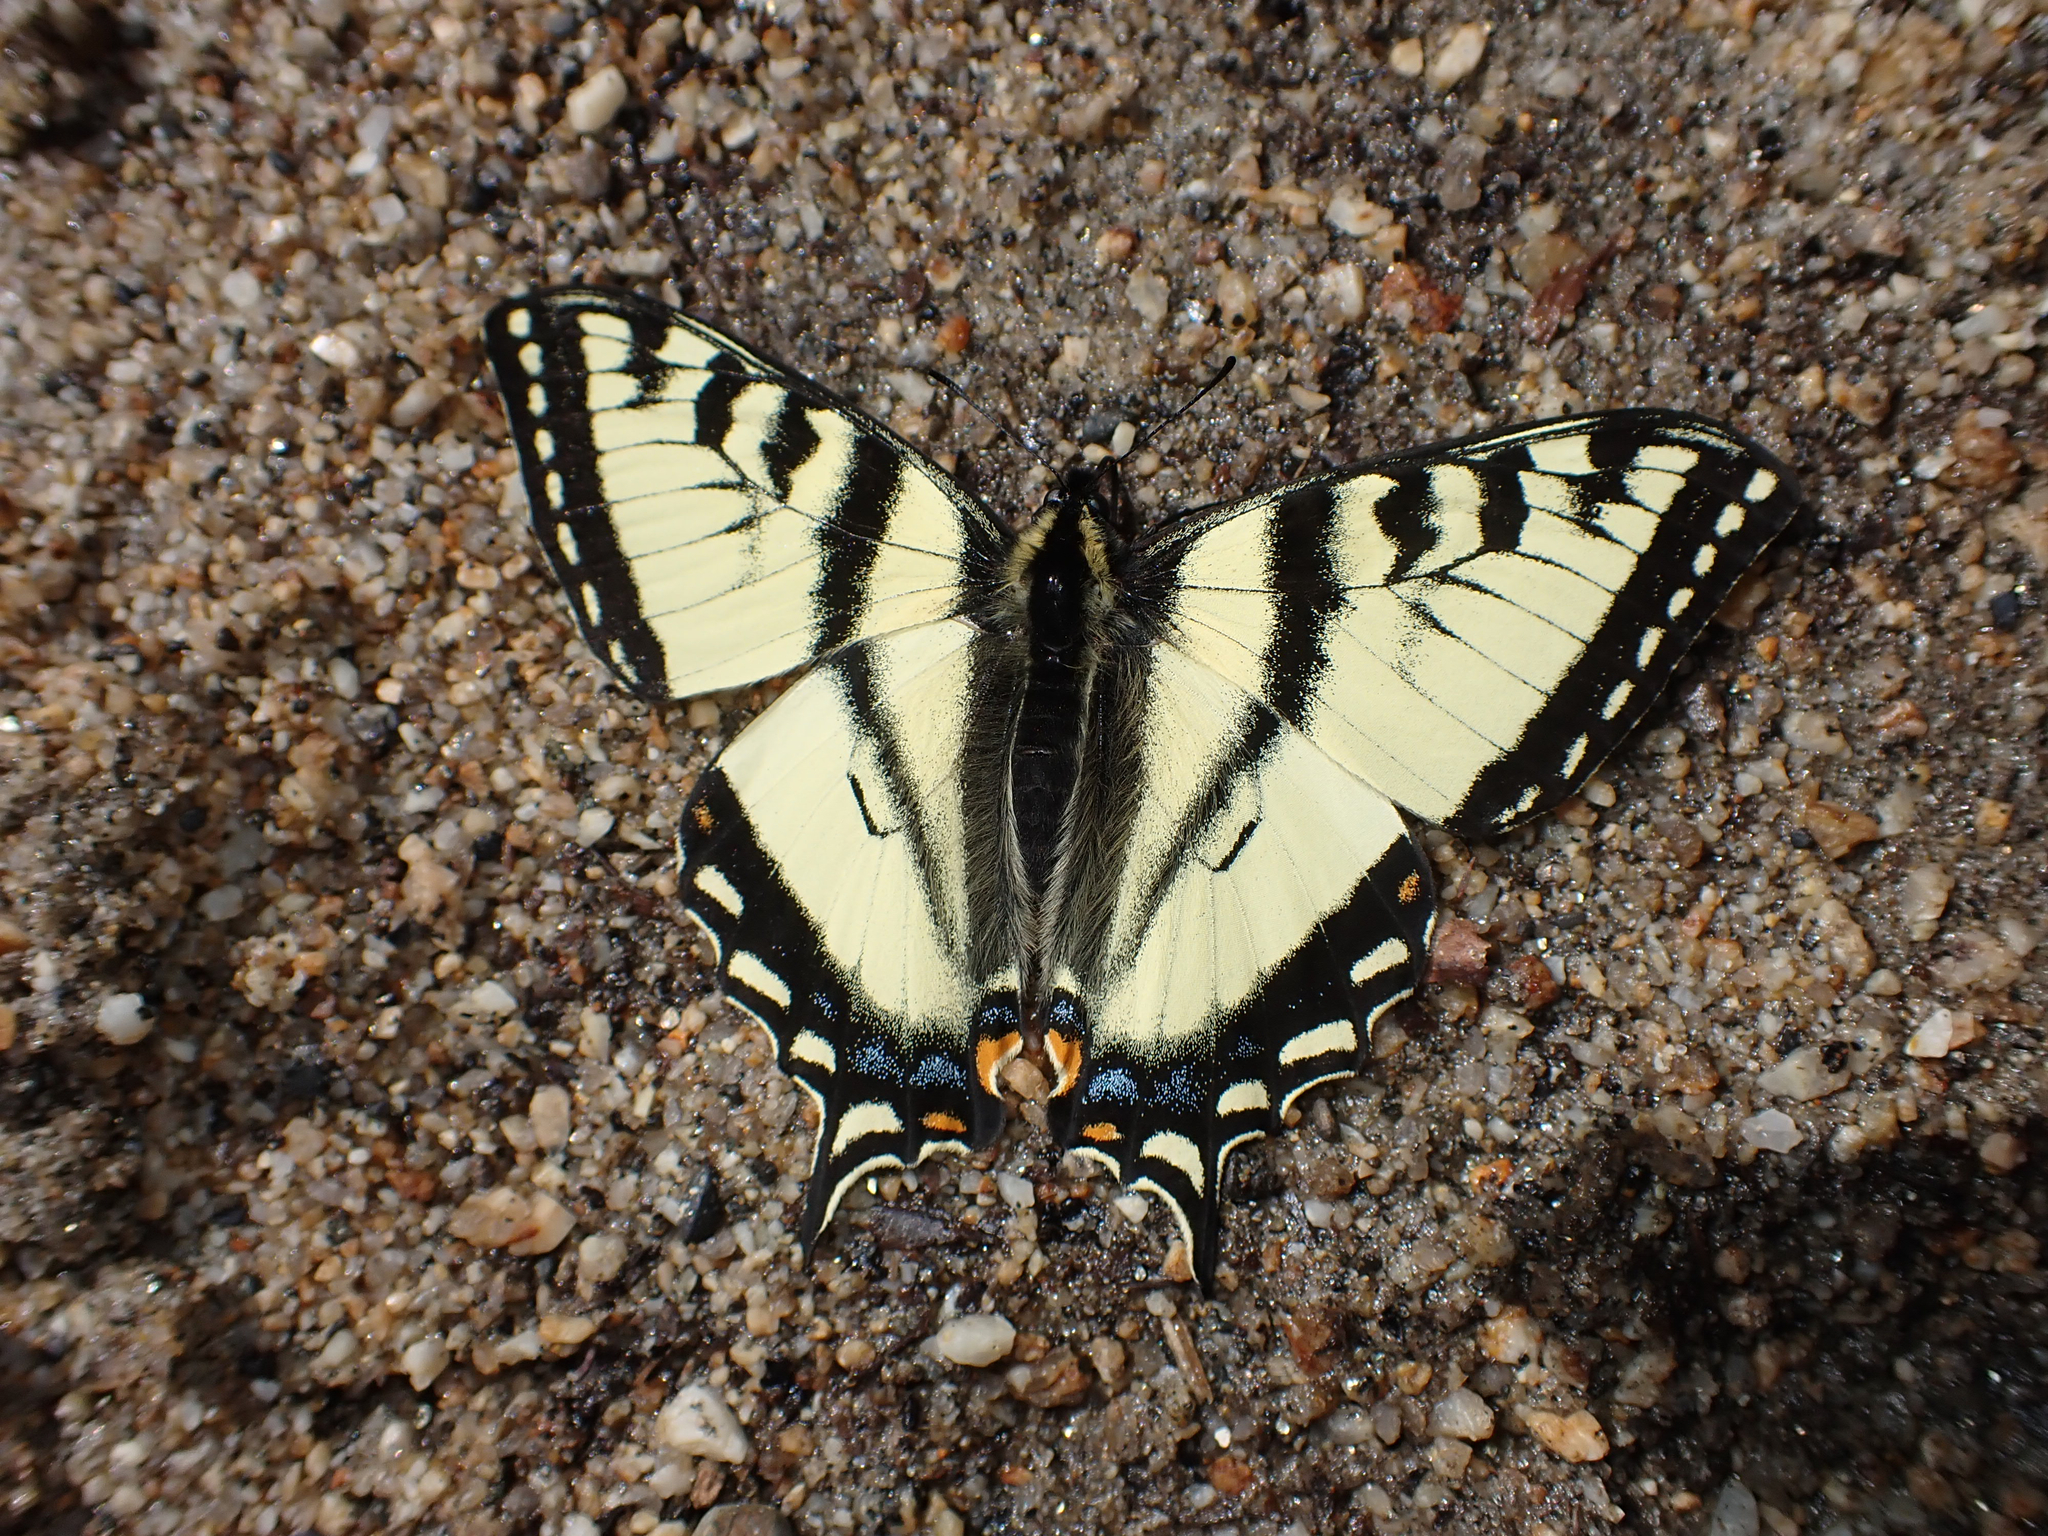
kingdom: Animalia
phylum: Arthropoda
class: Insecta
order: Lepidoptera
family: Papilionidae
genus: Papilio
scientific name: Papilio canadensis
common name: Canadian tiger swallowtail
